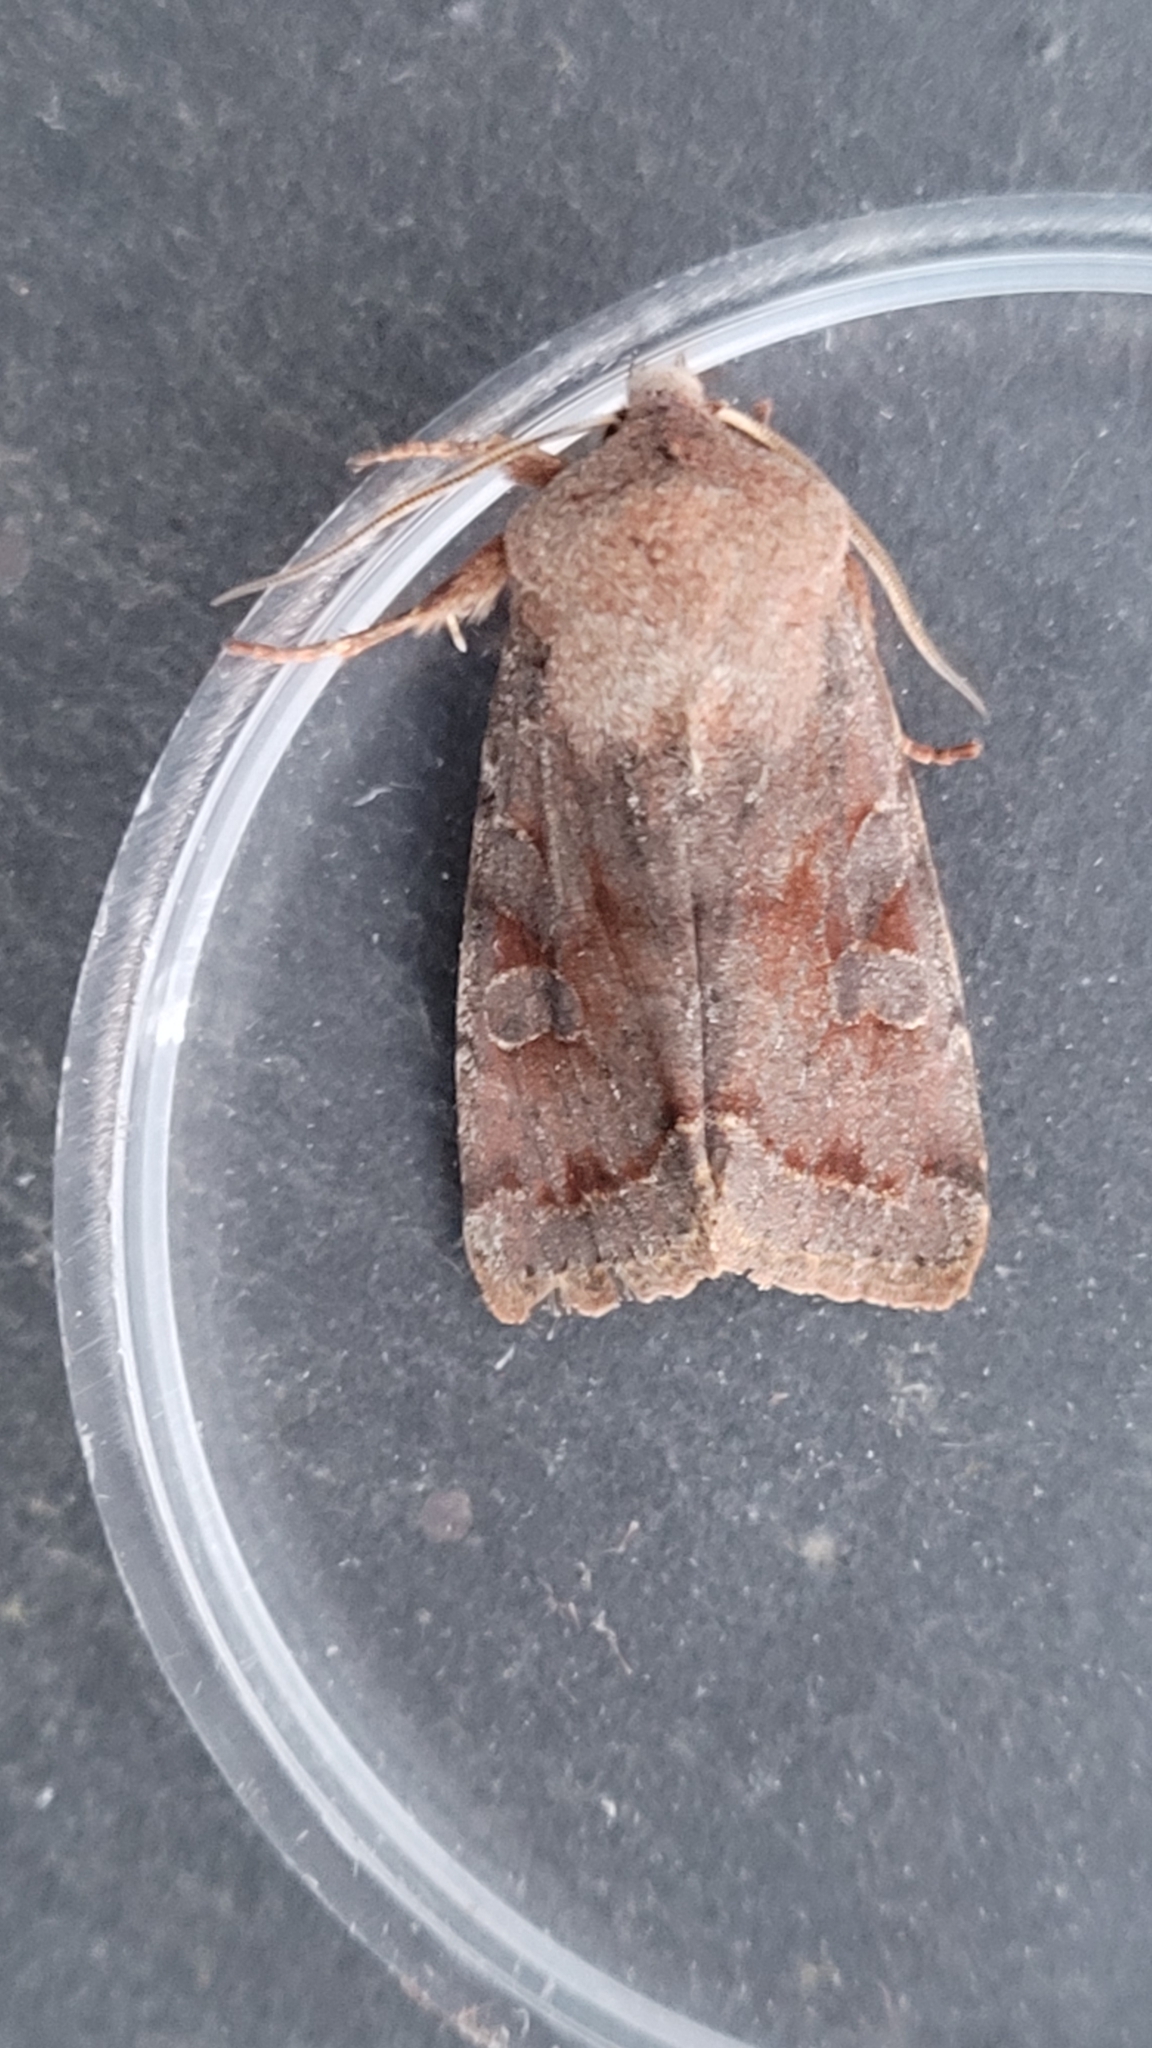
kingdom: Animalia
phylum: Arthropoda
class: Insecta
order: Lepidoptera
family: Noctuidae
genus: Orthosia
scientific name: Orthosia incerta
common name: Clouded drab
